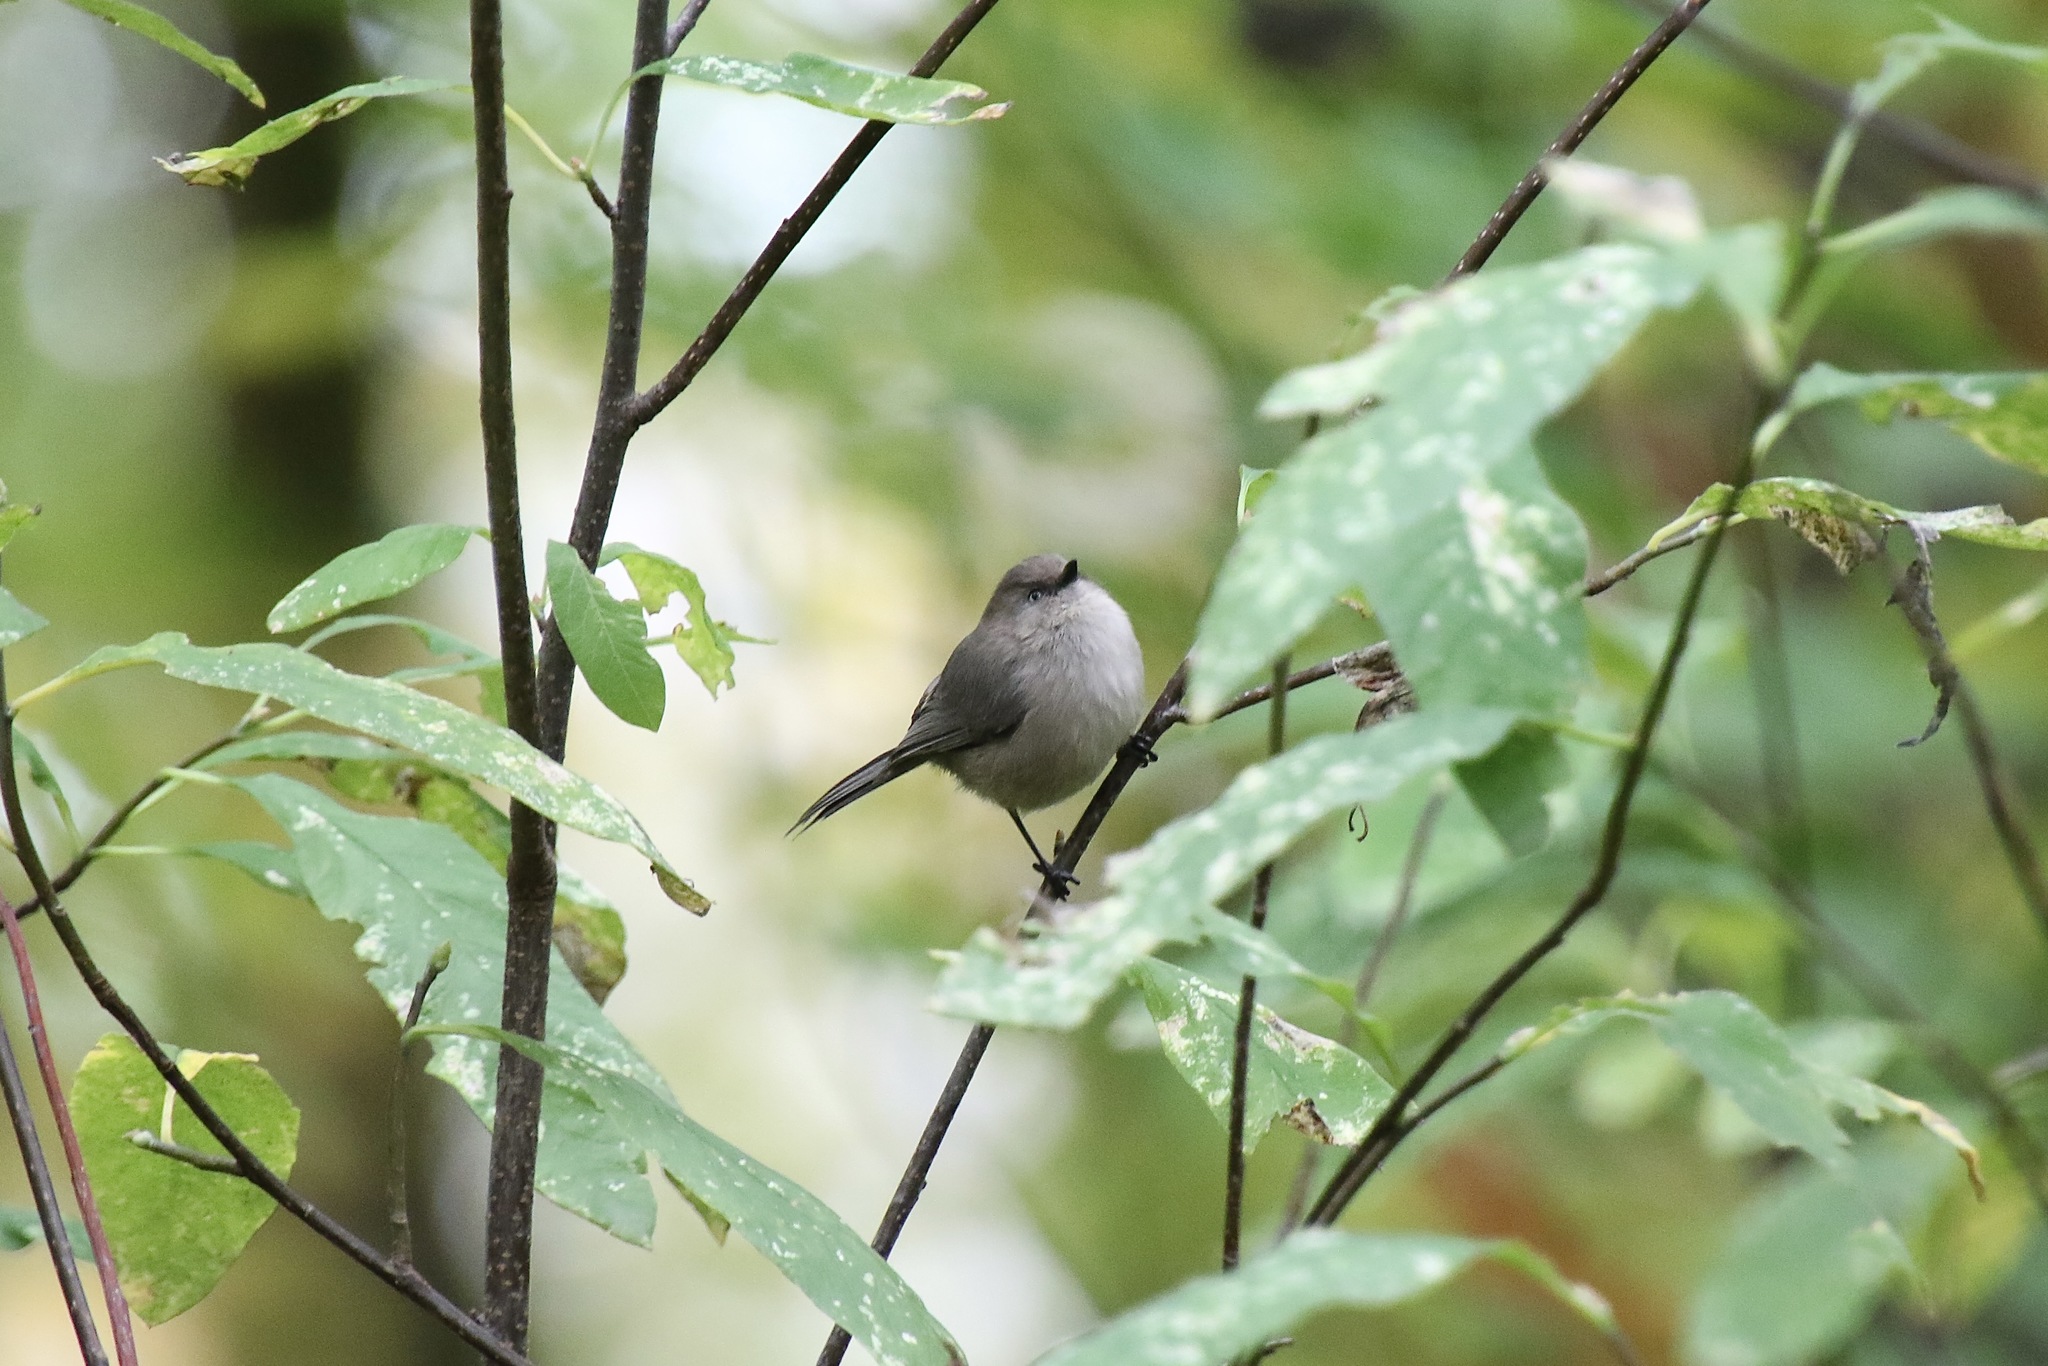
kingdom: Animalia
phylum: Chordata
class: Aves
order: Passeriformes
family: Aegithalidae
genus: Psaltriparus
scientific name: Psaltriparus minimus
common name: American bushtit
